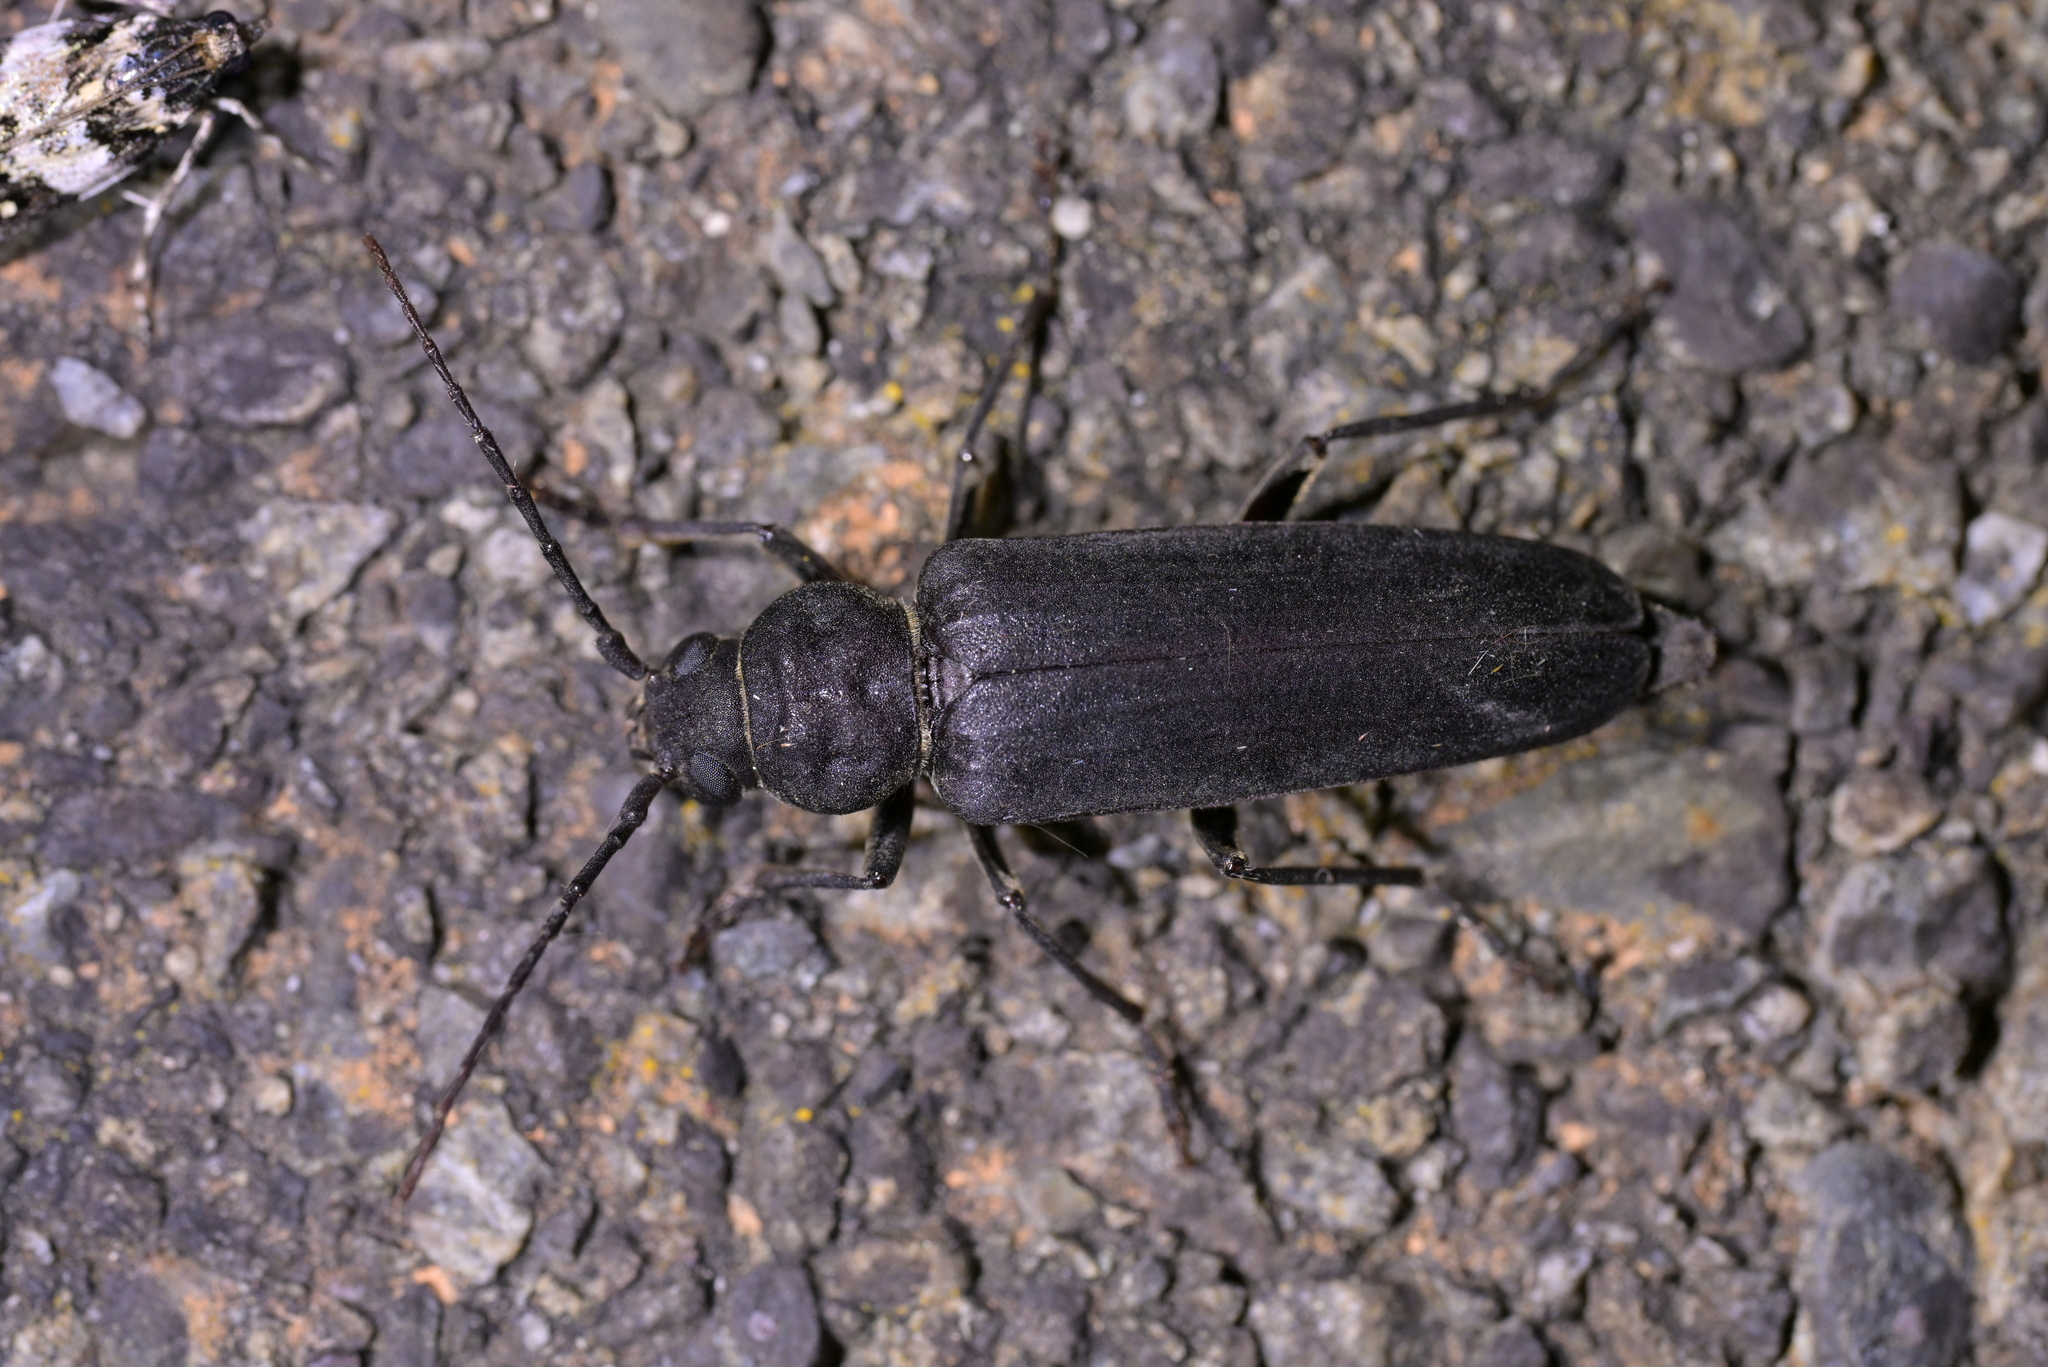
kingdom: Animalia
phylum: Arthropoda
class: Insecta
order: Coleoptera
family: Cerambycidae
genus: Arhopalus
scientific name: Arhopalus ferus
